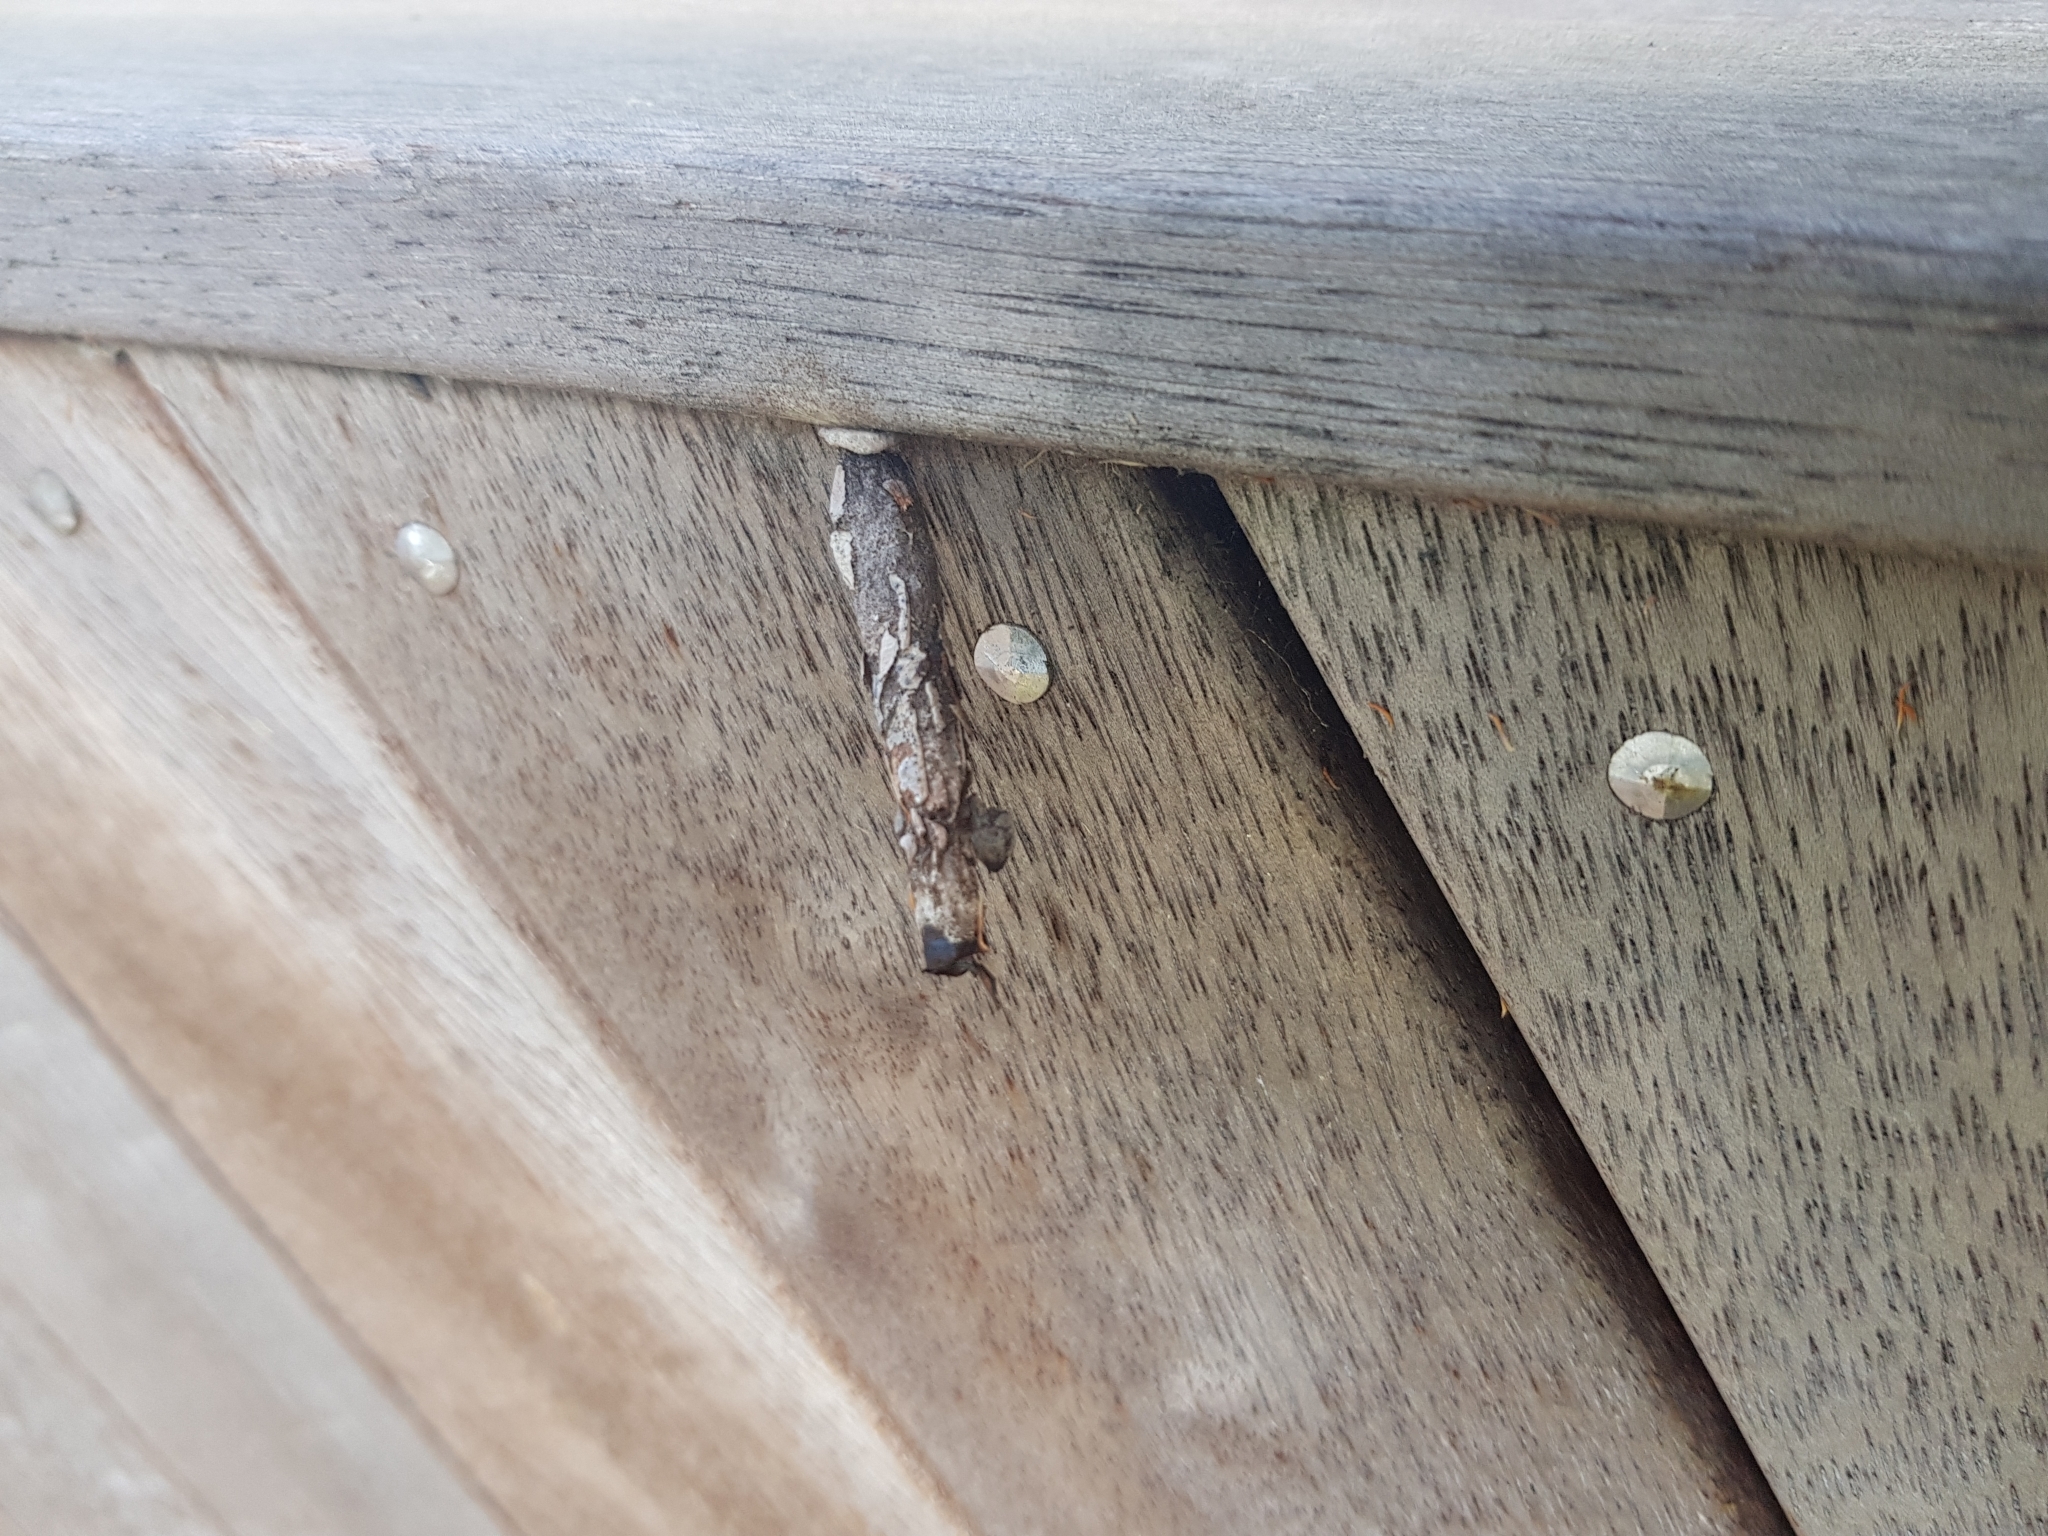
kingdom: Animalia
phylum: Arthropoda
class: Insecta
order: Lepidoptera
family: Psychidae
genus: Liothula
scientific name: Liothula omnivora
